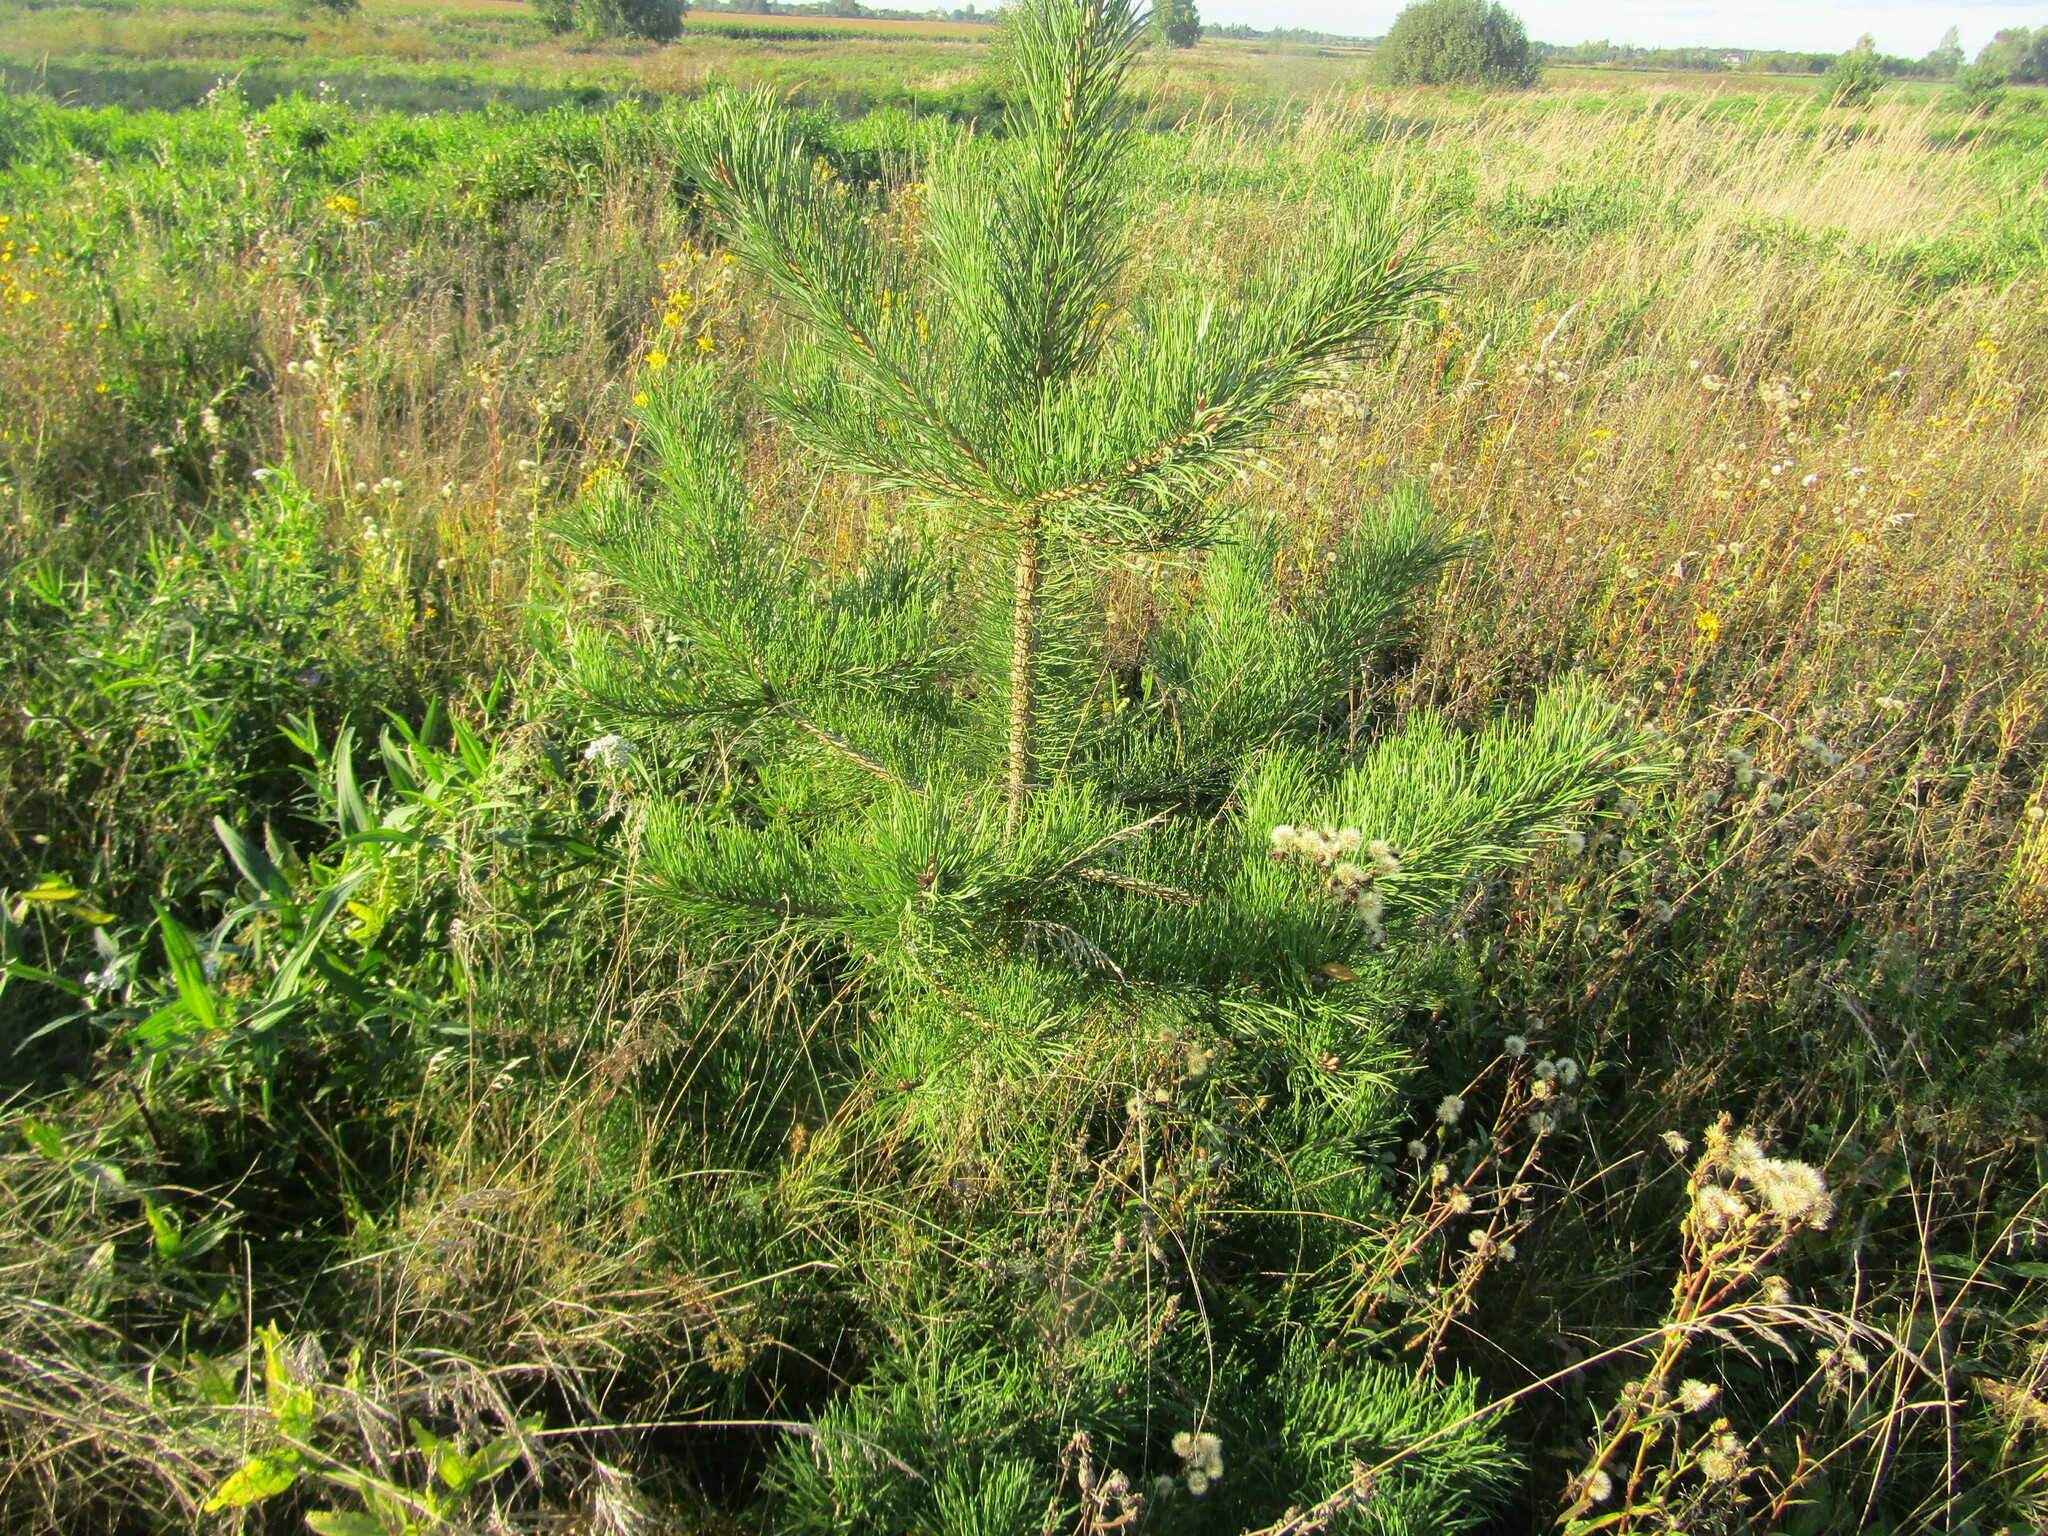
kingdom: Plantae
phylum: Tracheophyta
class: Pinopsida
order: Pinales
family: Pinaceae
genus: Pinus
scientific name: Pinus sylvestris
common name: Scots pine
